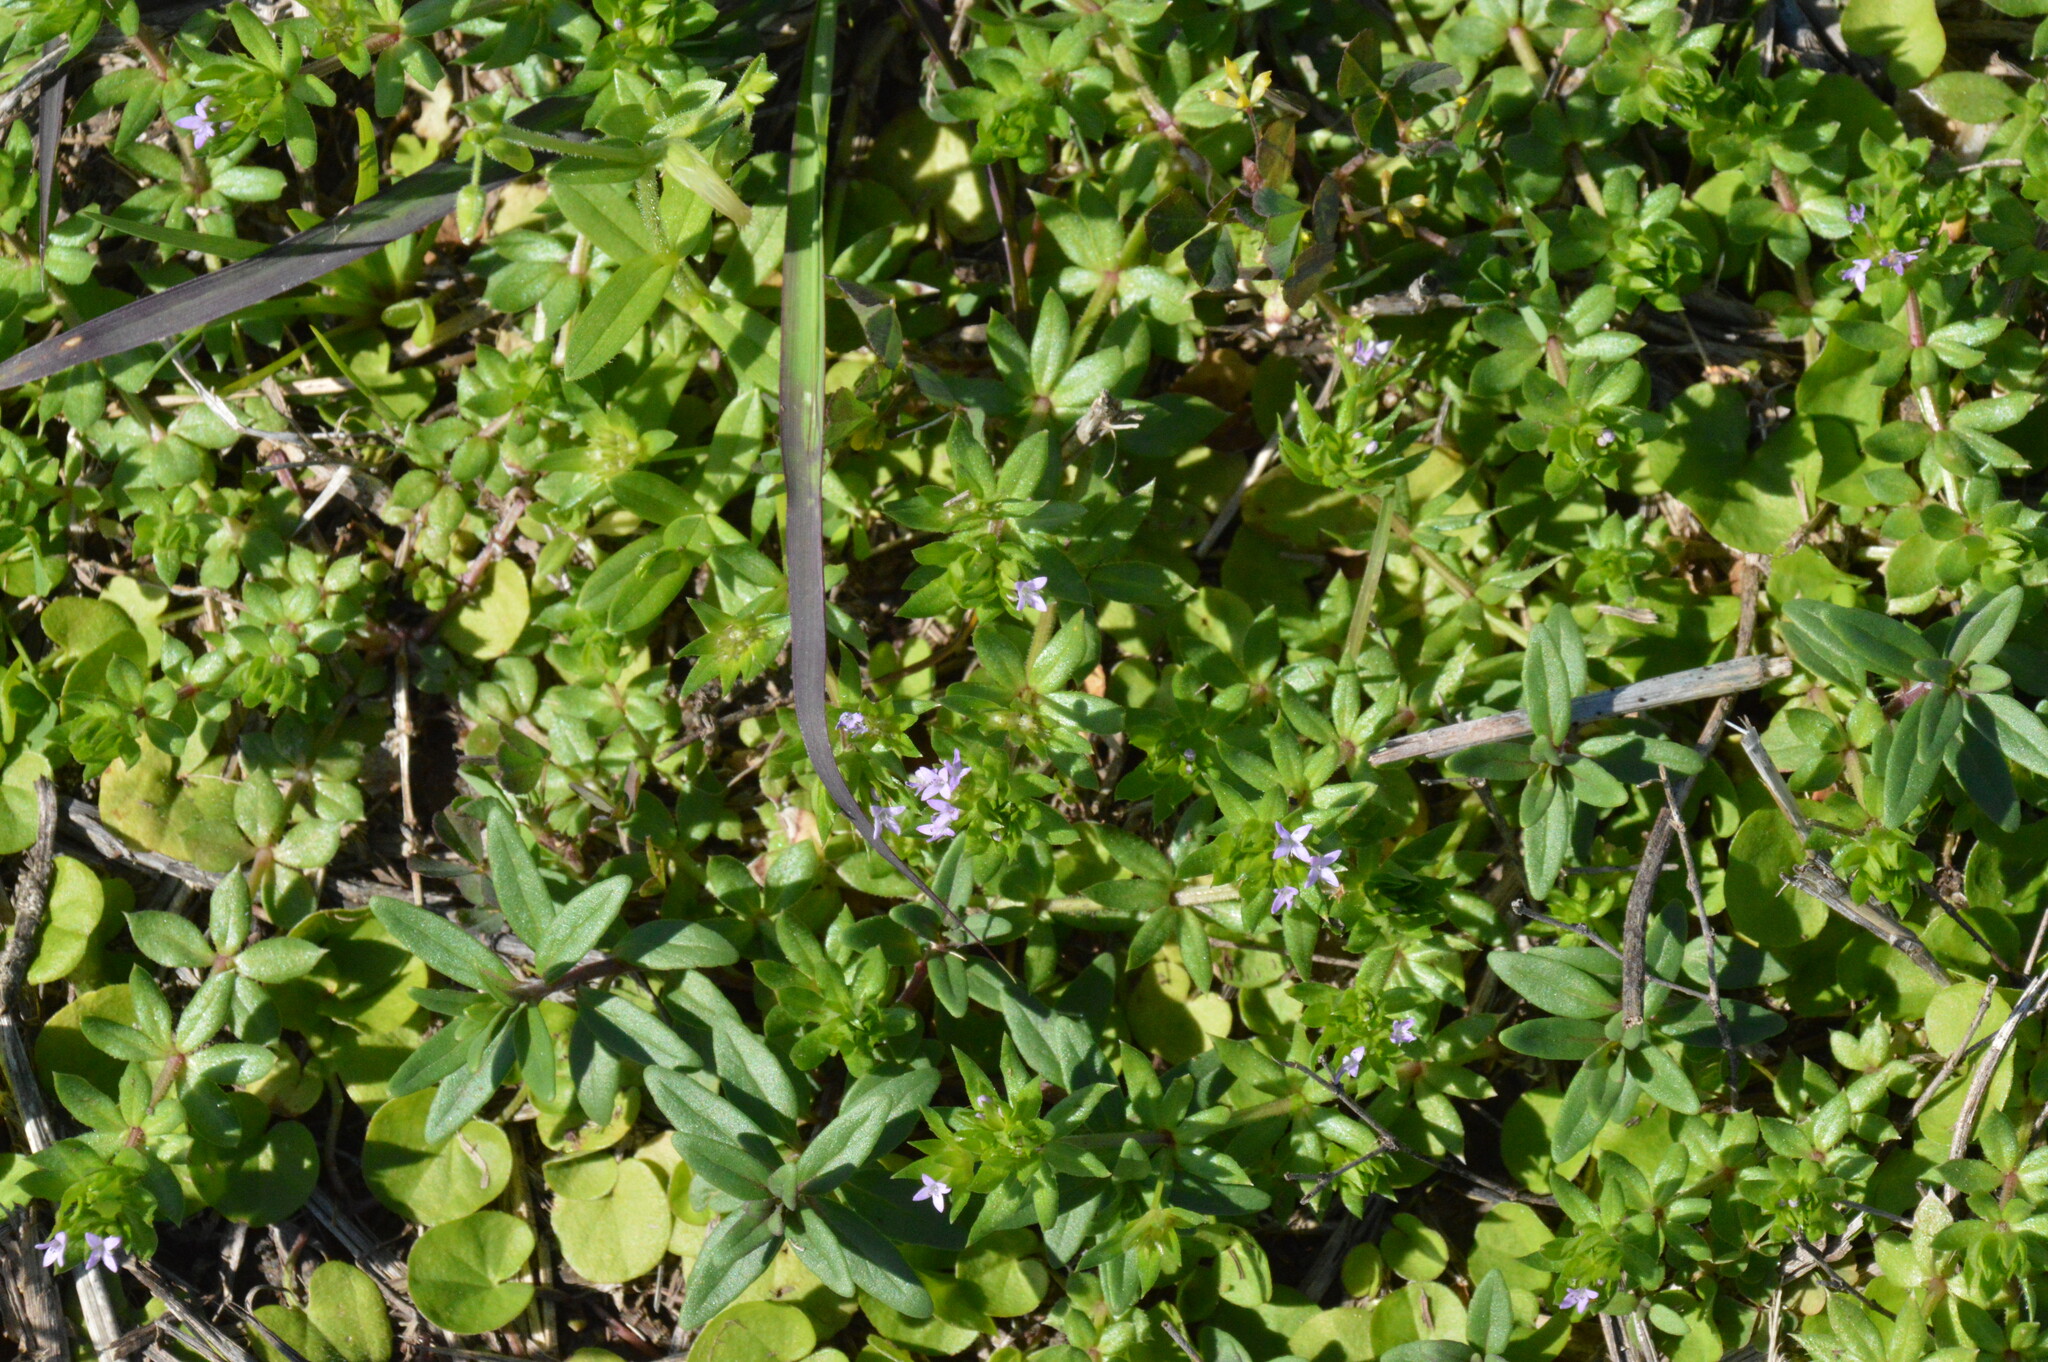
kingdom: Plantae
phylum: Tracheophyta
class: Magnoliopsida
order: Gentianales
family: Rubiaceae
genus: Sherardia
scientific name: Sherardia arvensis
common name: Field madder
